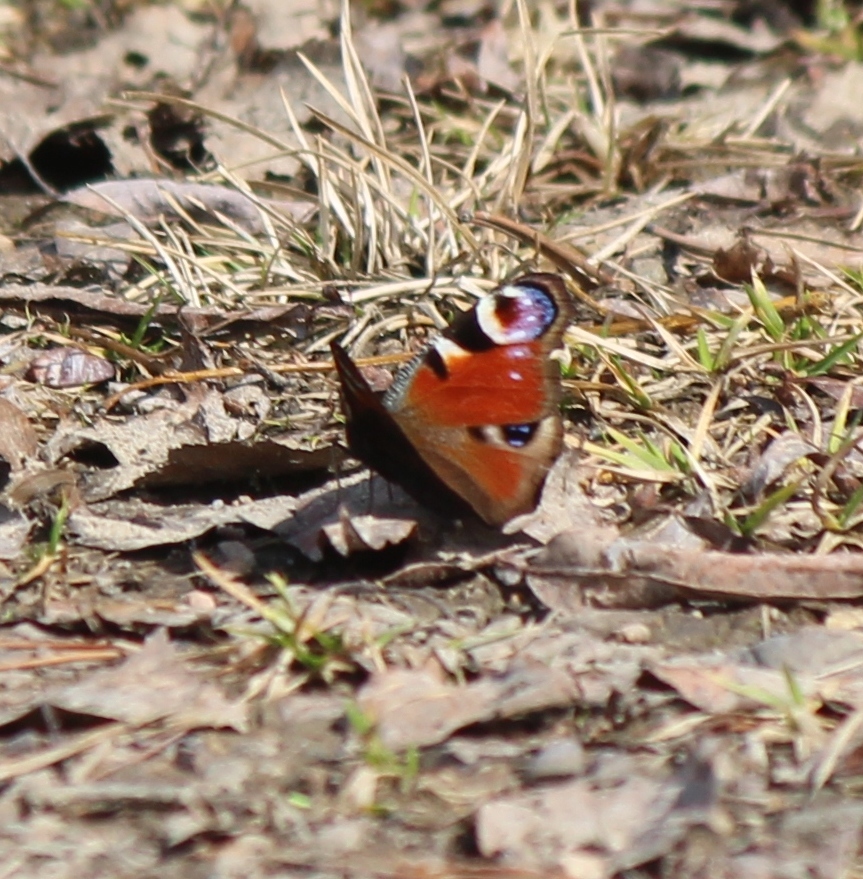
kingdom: Animalia
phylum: Arthropoda
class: Insecta
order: Lepidoptera
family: Nymphalidae
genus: Aglais
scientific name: Aglais io
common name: Peacock
